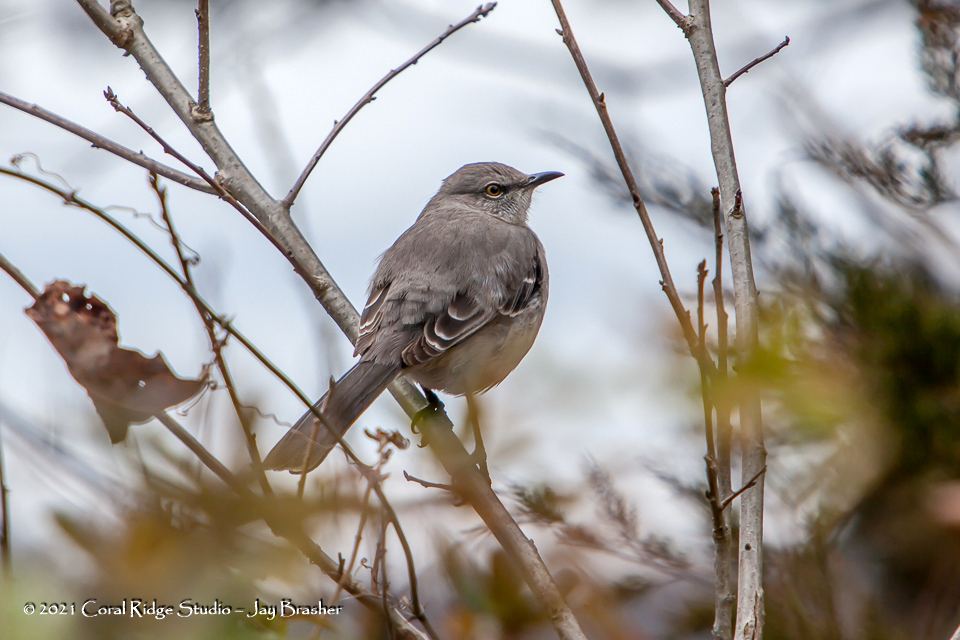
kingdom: Animalia
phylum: Chordata
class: Aves
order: Passeriformes
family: Mimidae
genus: Mimus
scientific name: Mimus polyglottos
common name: Northern mockingbird
